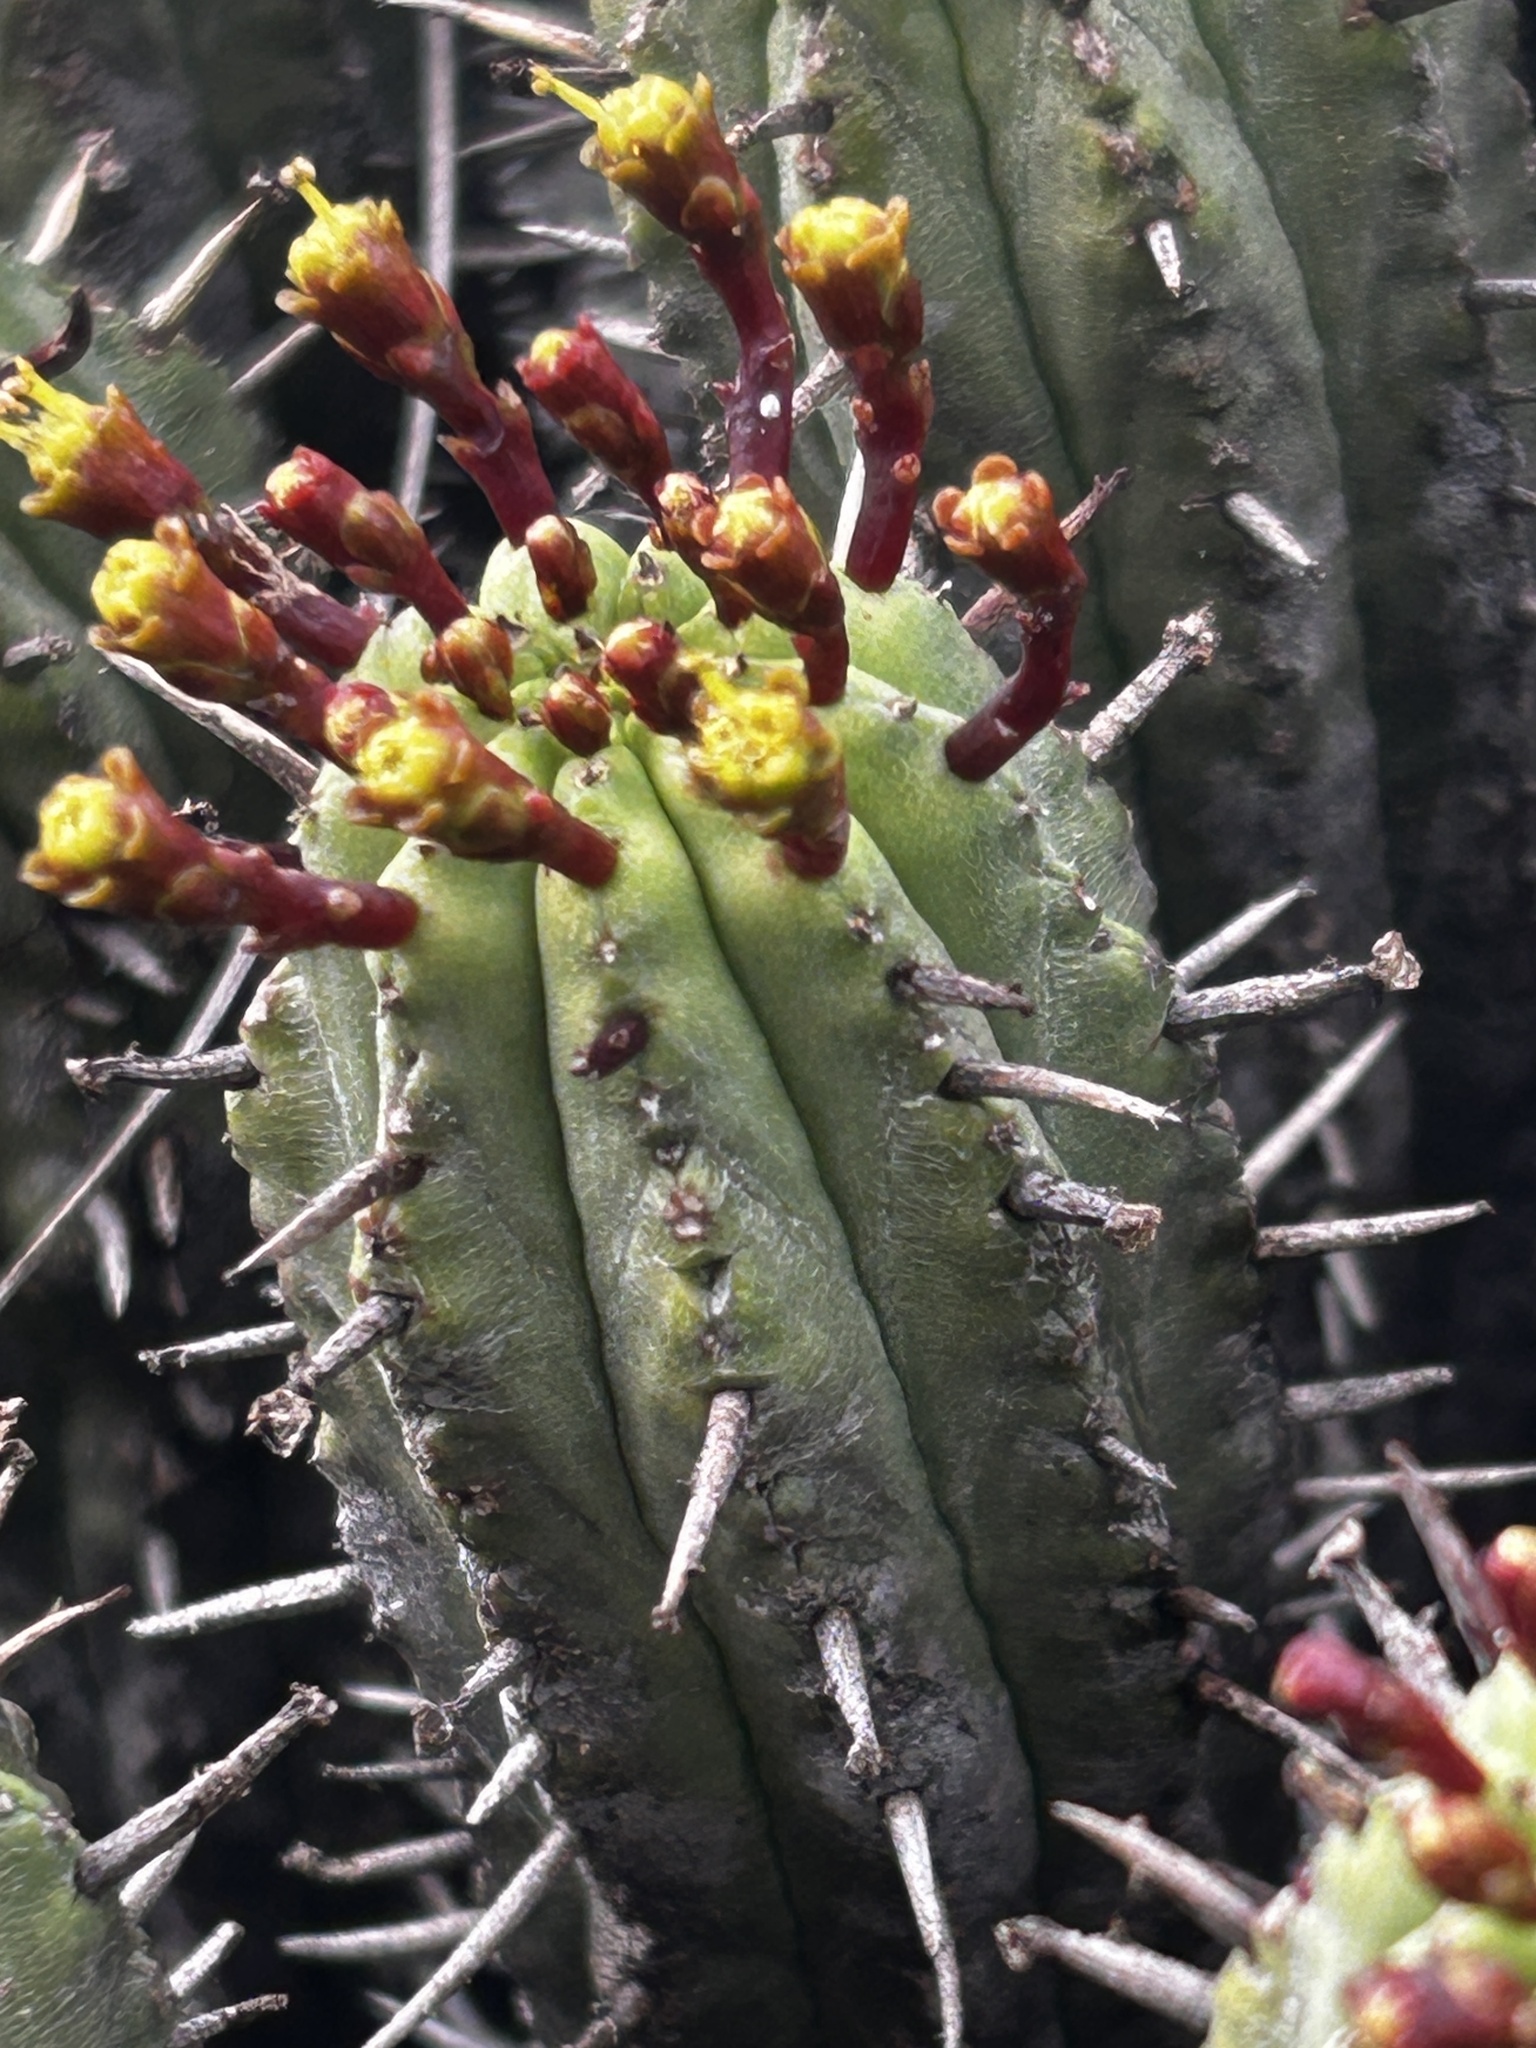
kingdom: Plantae
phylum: Tracheophyta
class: Magnoliopsida
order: Malpighiales
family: Euphorbiaceae
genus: Euphorbia
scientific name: Euphorbia heptagona
